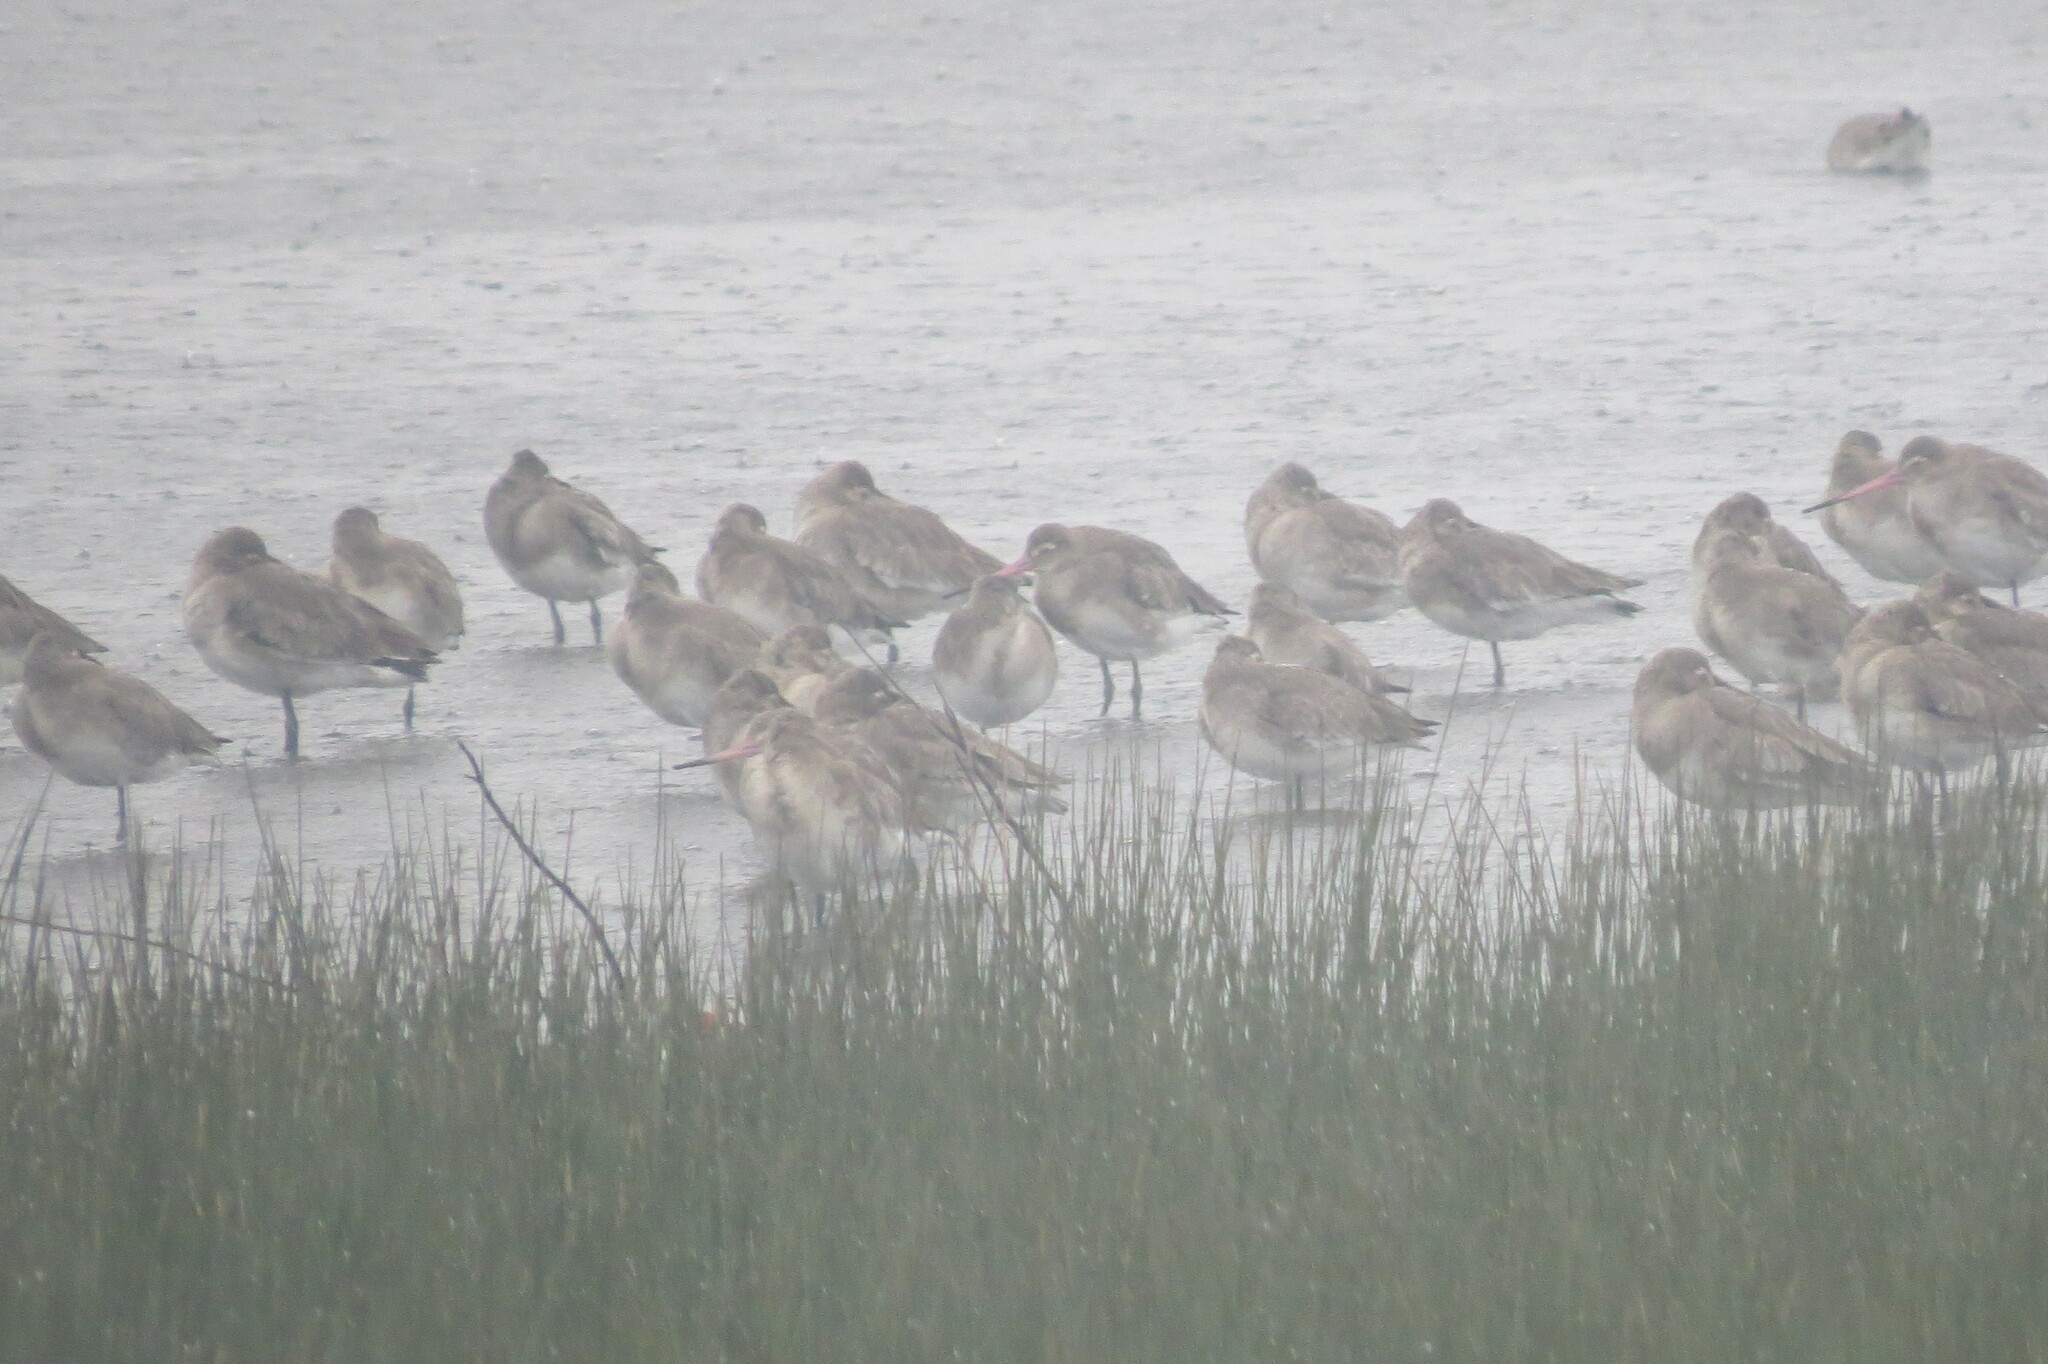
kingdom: Animalia
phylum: Chordata
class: Aves
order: Charadriiformes
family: Scolopacidae
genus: Limosa
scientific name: Limosa limosa
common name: Black-tailed godwit
